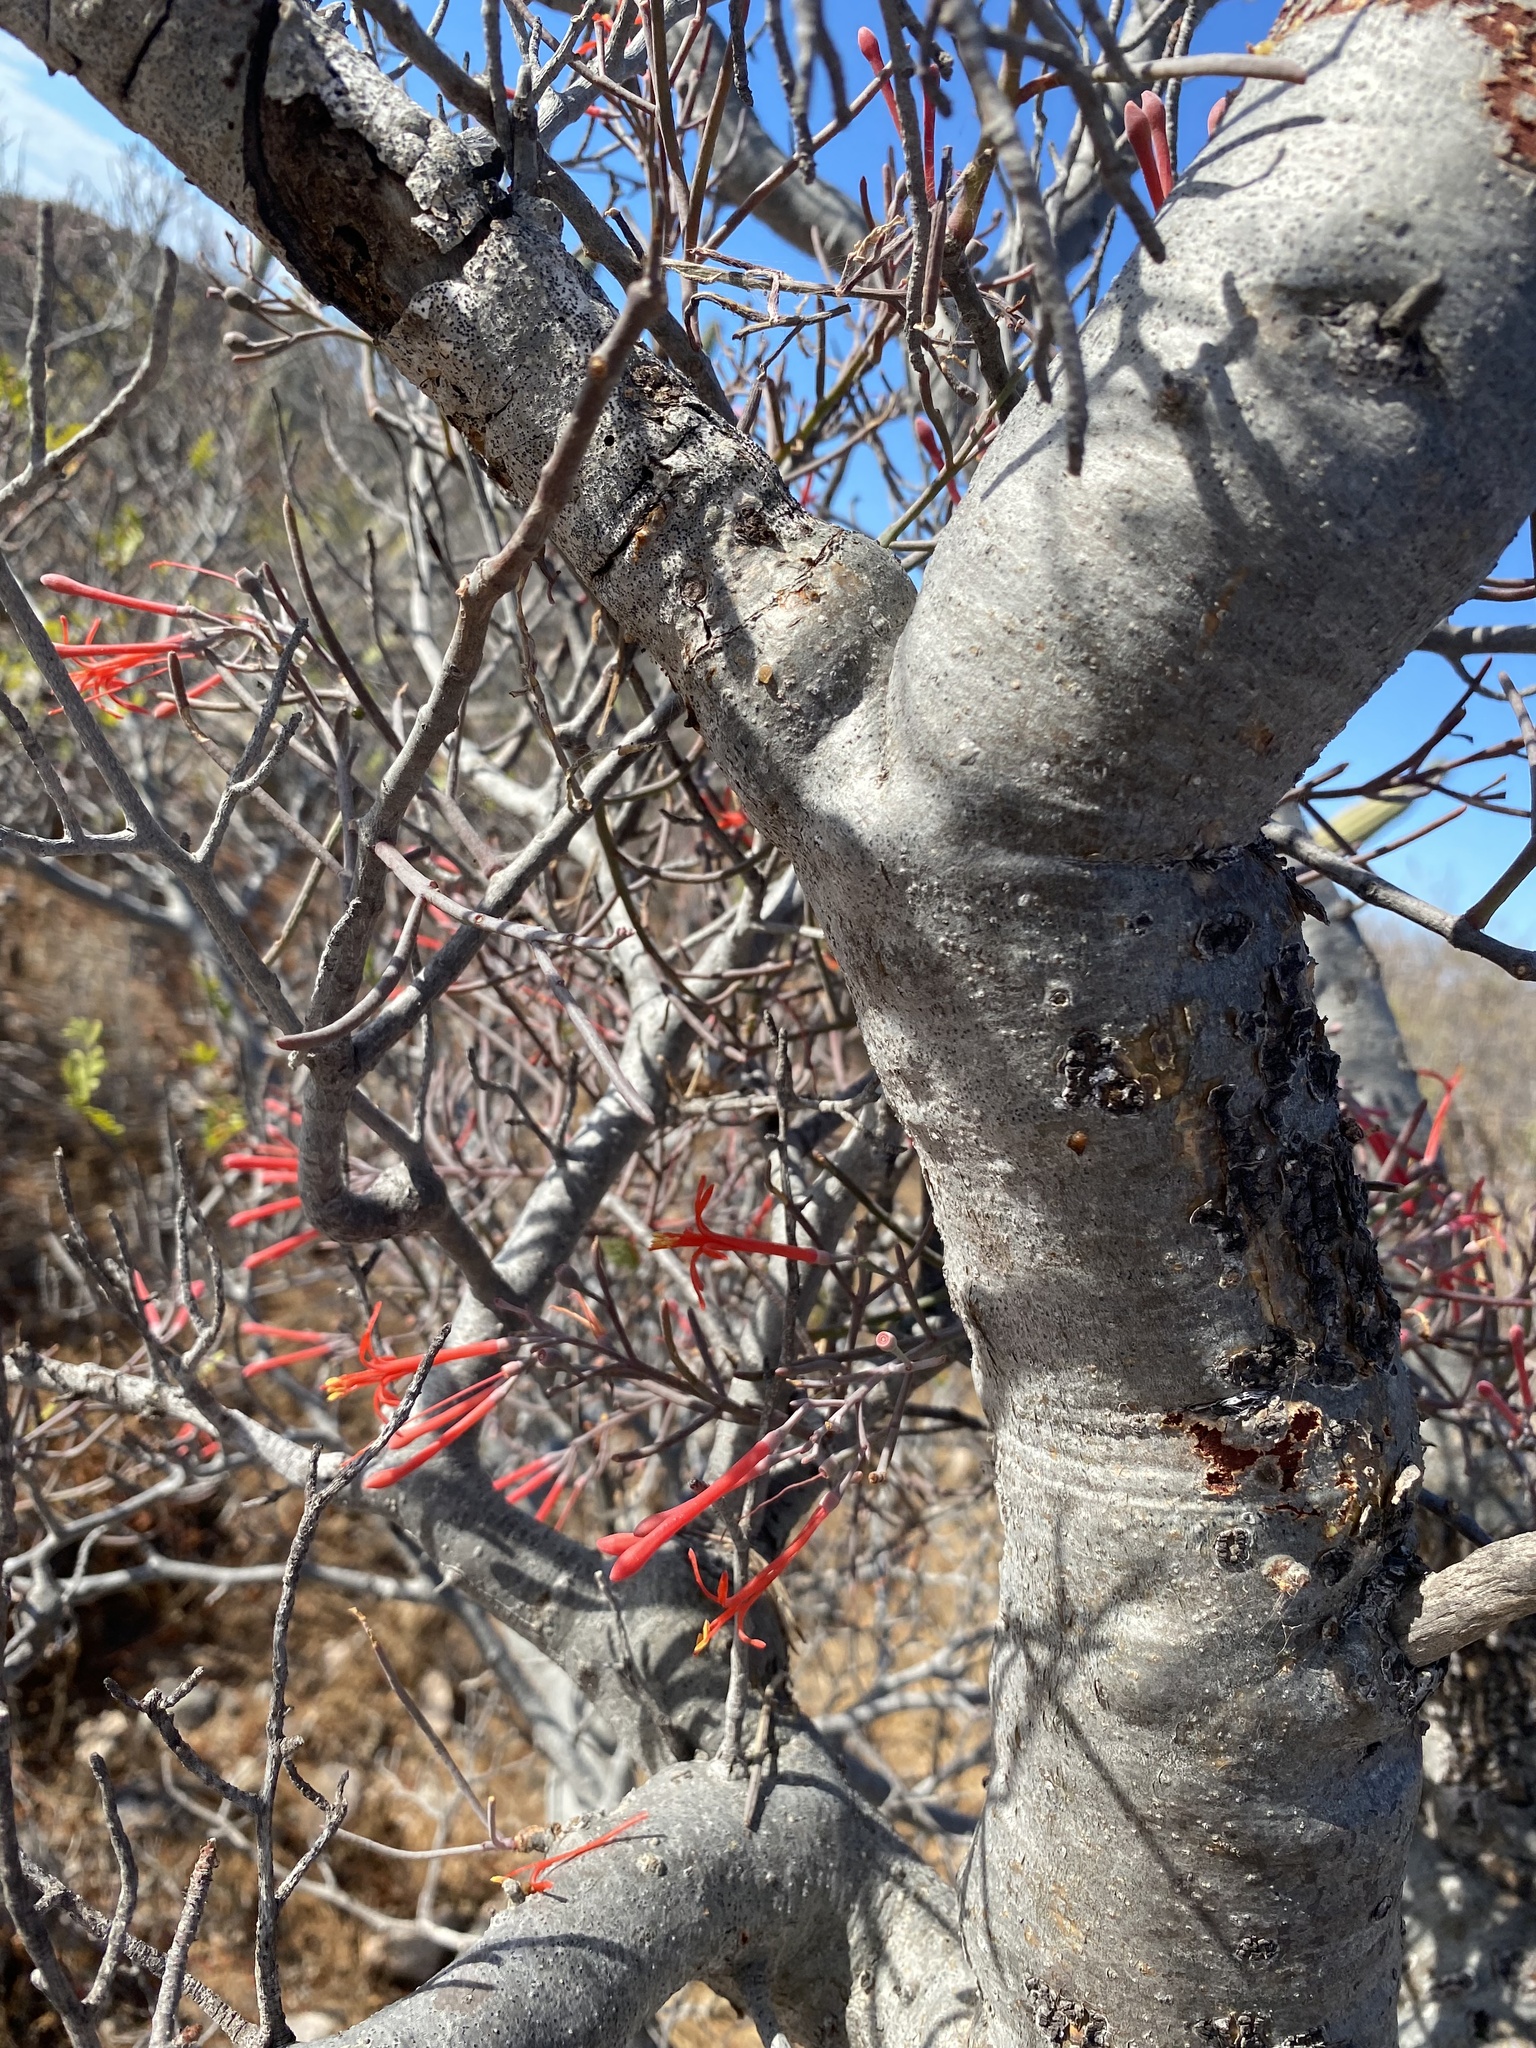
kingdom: Plantae
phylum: Tracheophyta
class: Magnoliopsida
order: Santalales
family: Loranthaceae
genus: Psittacanthus
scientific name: Psittacanthus sonorae
